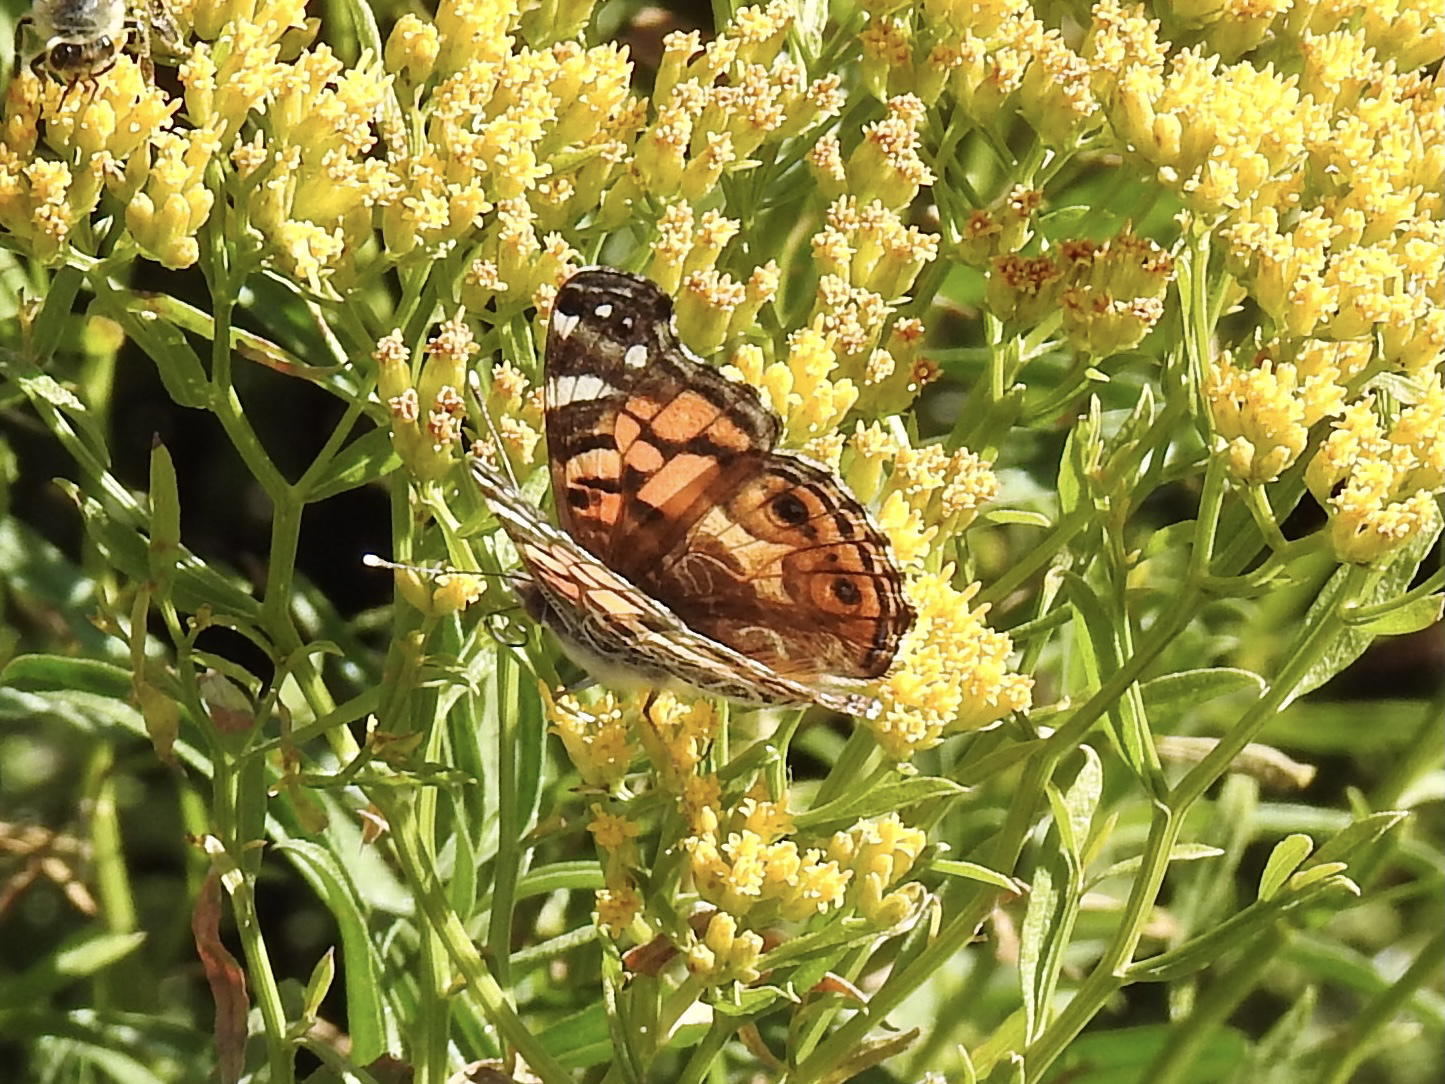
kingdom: Animalia
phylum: Arthropoda
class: Insecta
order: Lepidoptera
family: Nymphalidae
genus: Vanessa
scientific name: Vanessa virginiensis
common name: American lady
